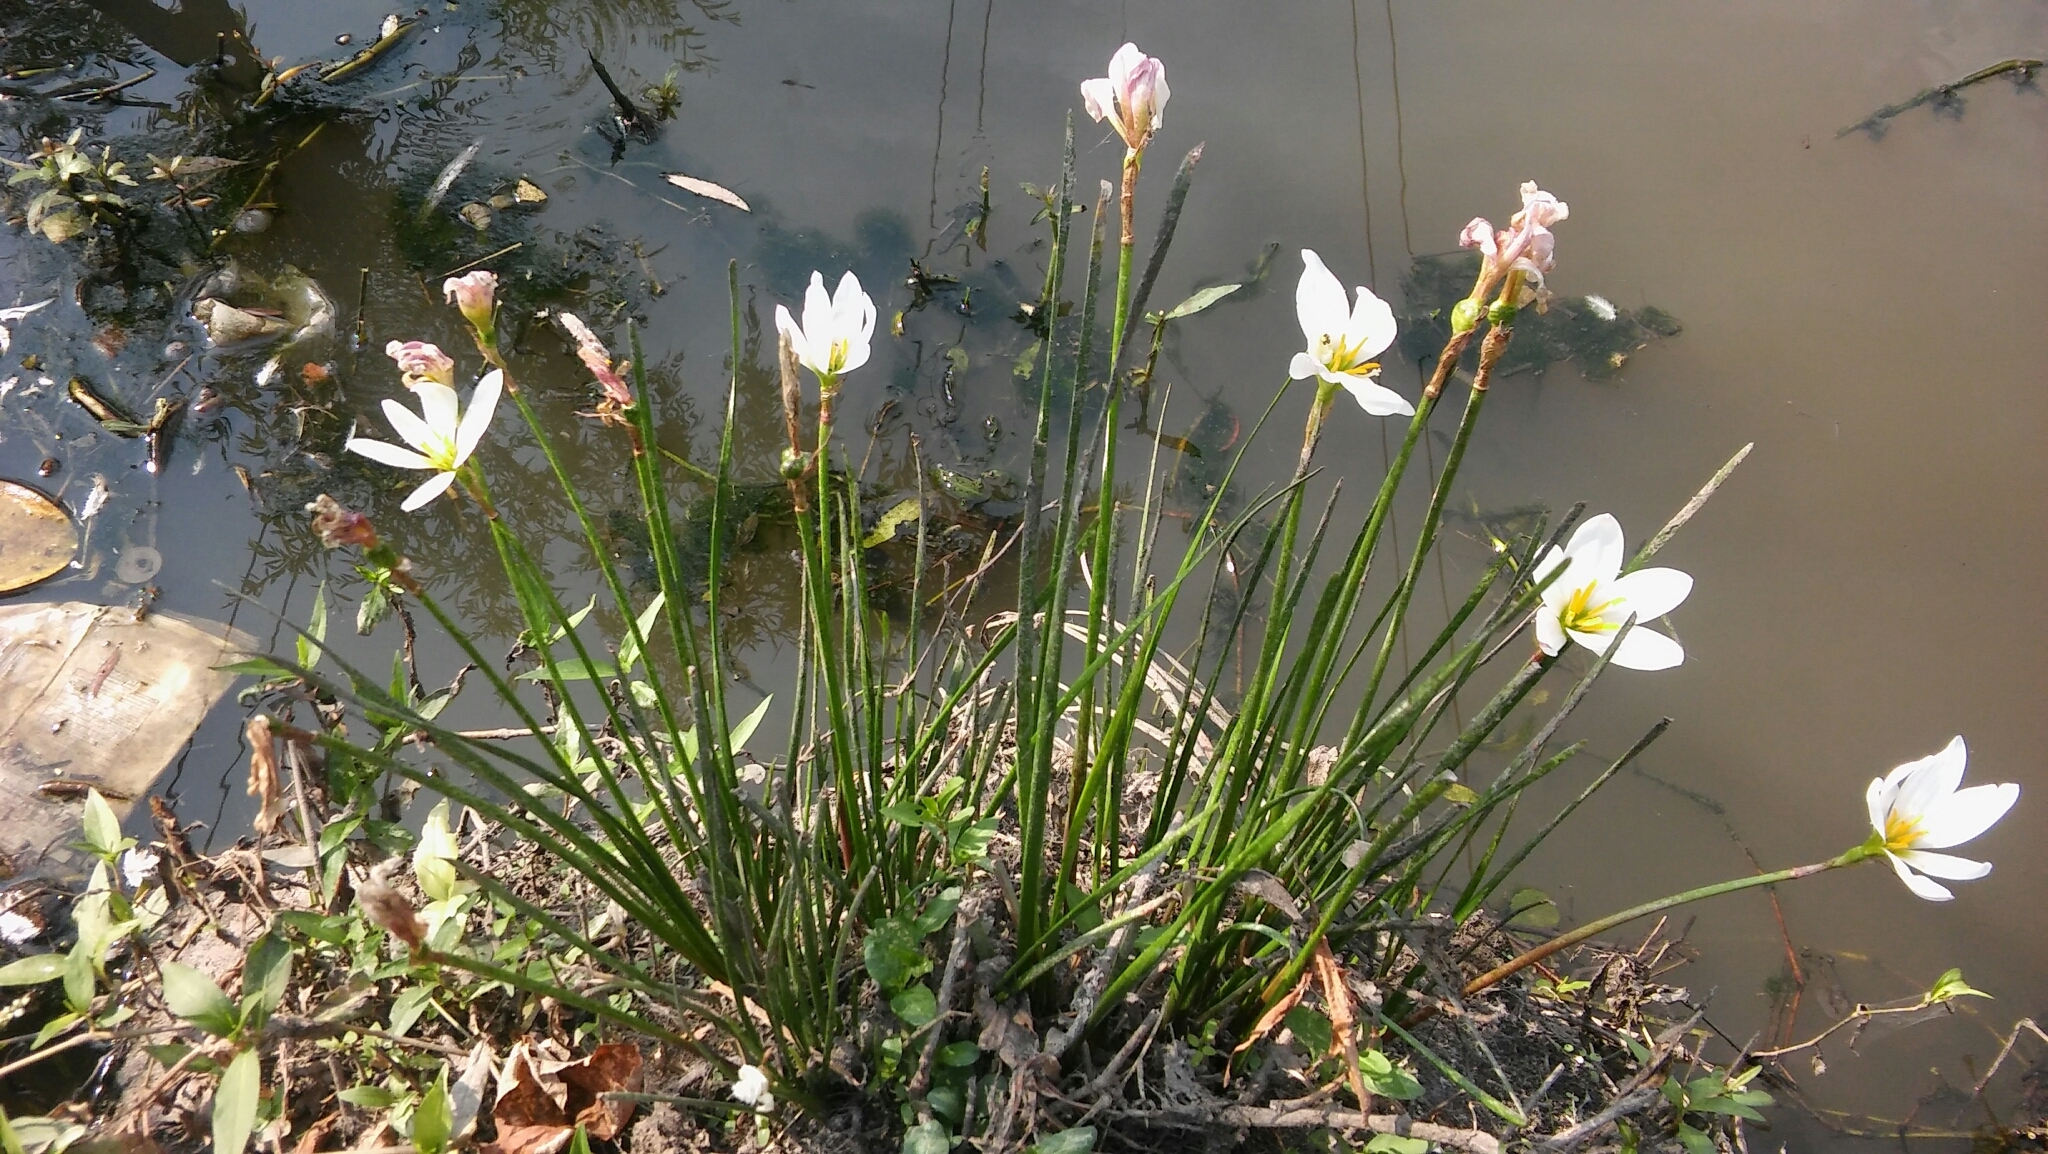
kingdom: Plantae
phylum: Tracheophyta
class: Liliopsida
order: Asparagales
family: Amaryllidaceae
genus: Zephyranthes
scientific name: Zephyranthes candida
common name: Autumn zephyrlily
